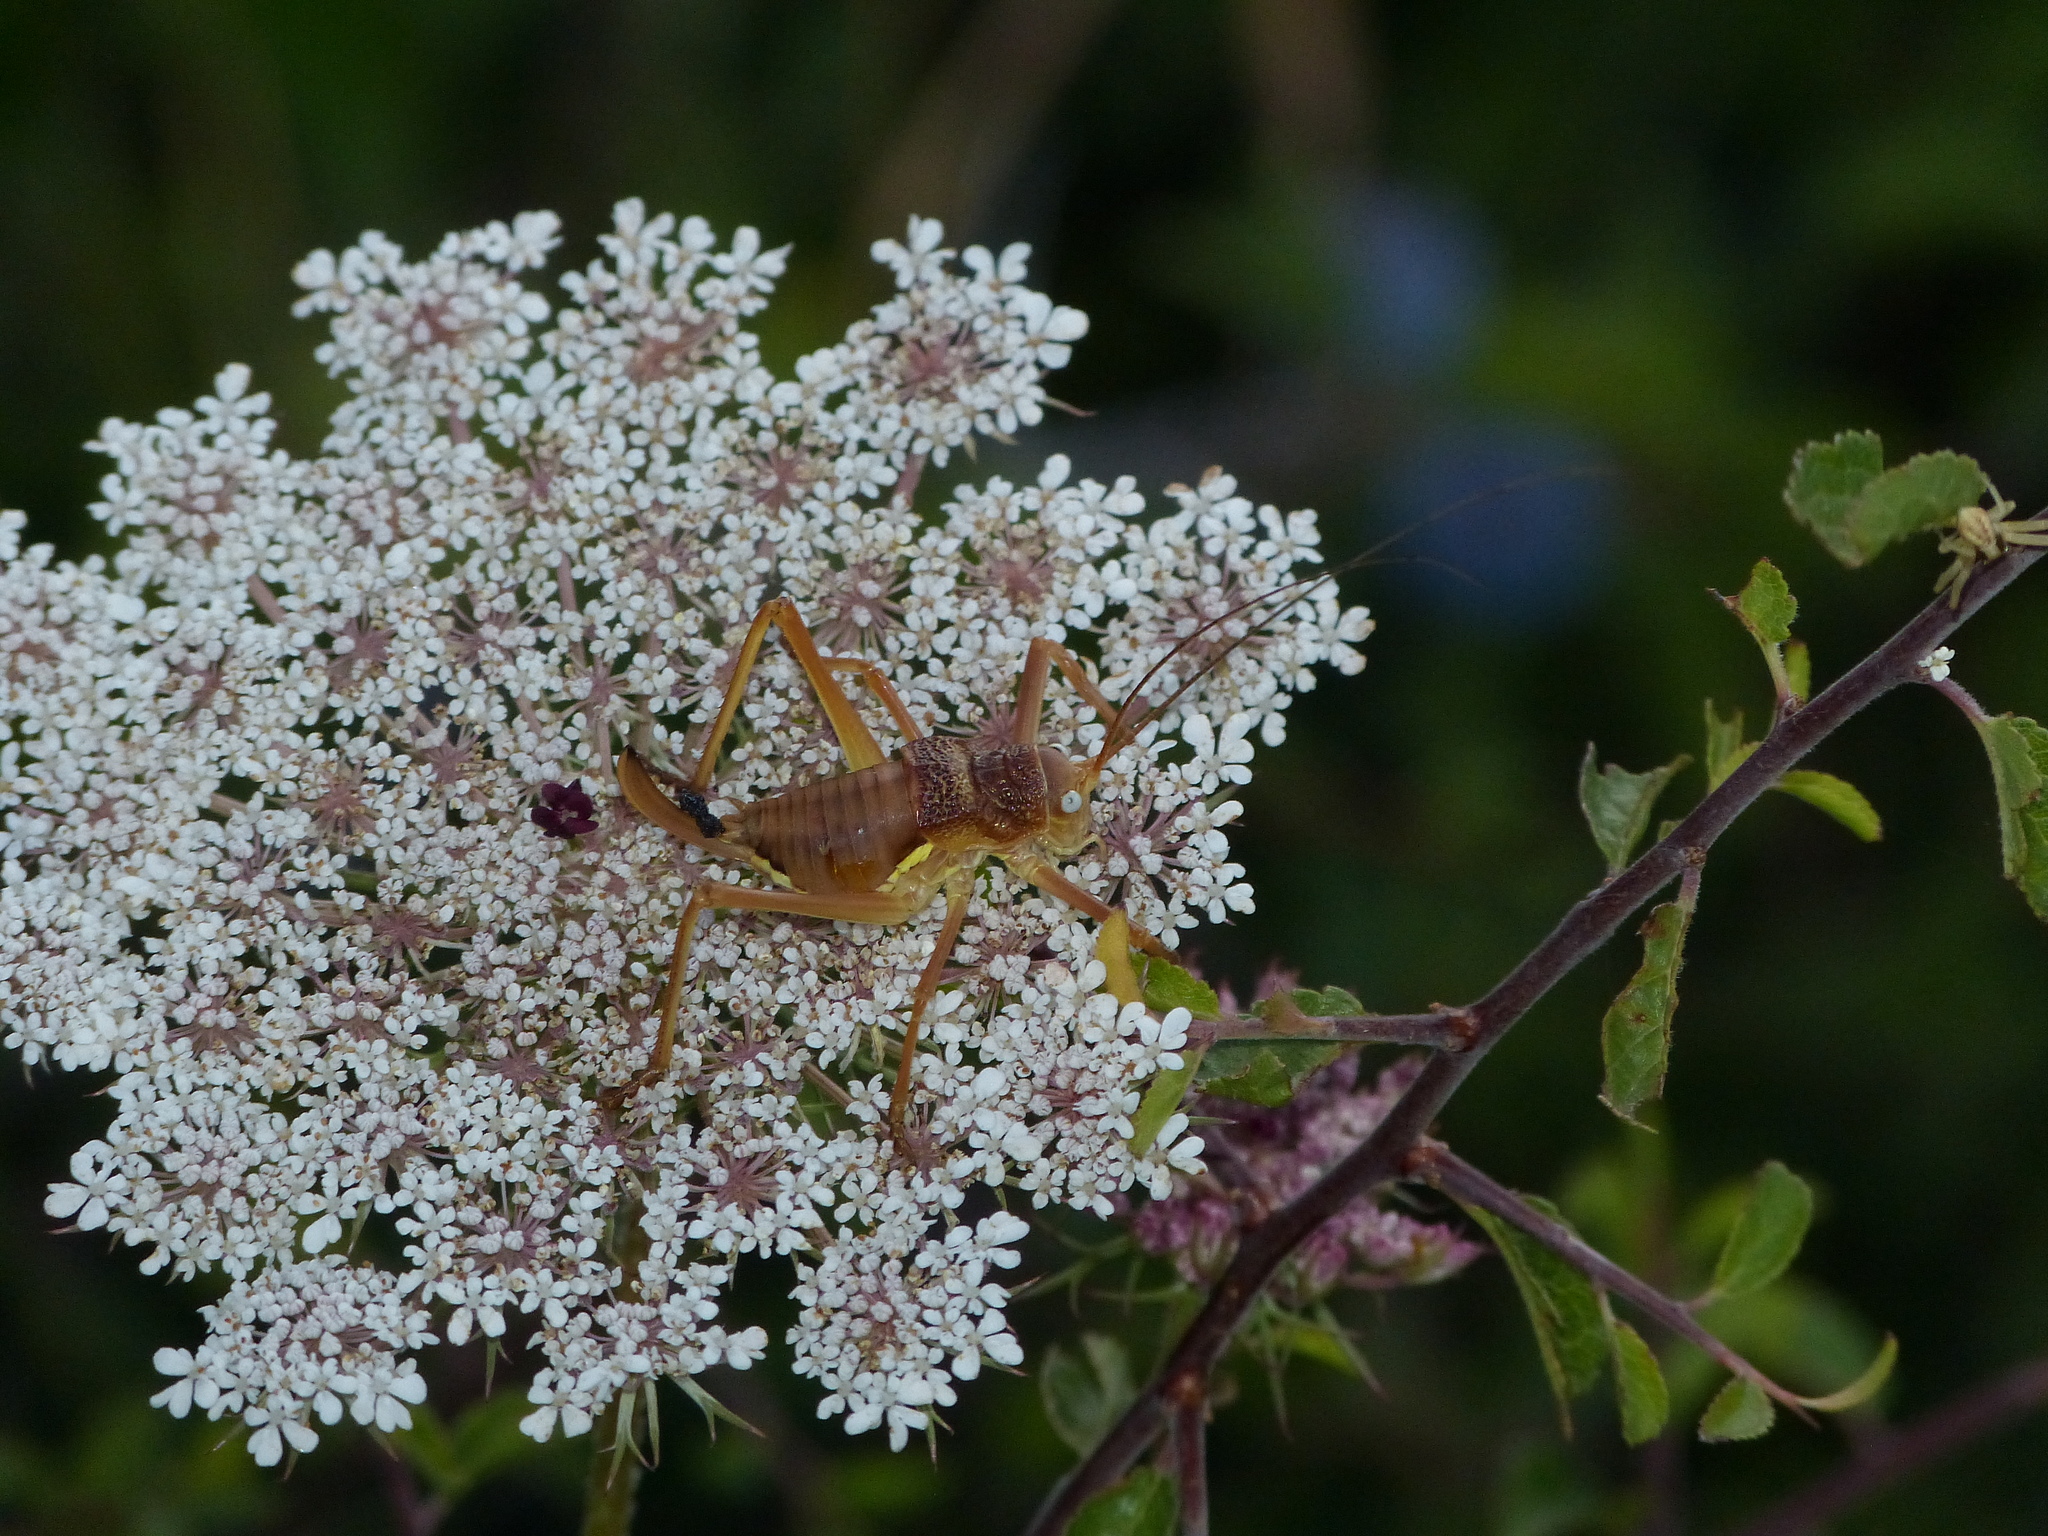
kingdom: Animalia
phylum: Arthropoda
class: Insecta
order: Orthoptera
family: Tettigoniidae
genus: Uromenus
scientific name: Uromenus rugosicollis
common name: Rough saddle bush-cricket
